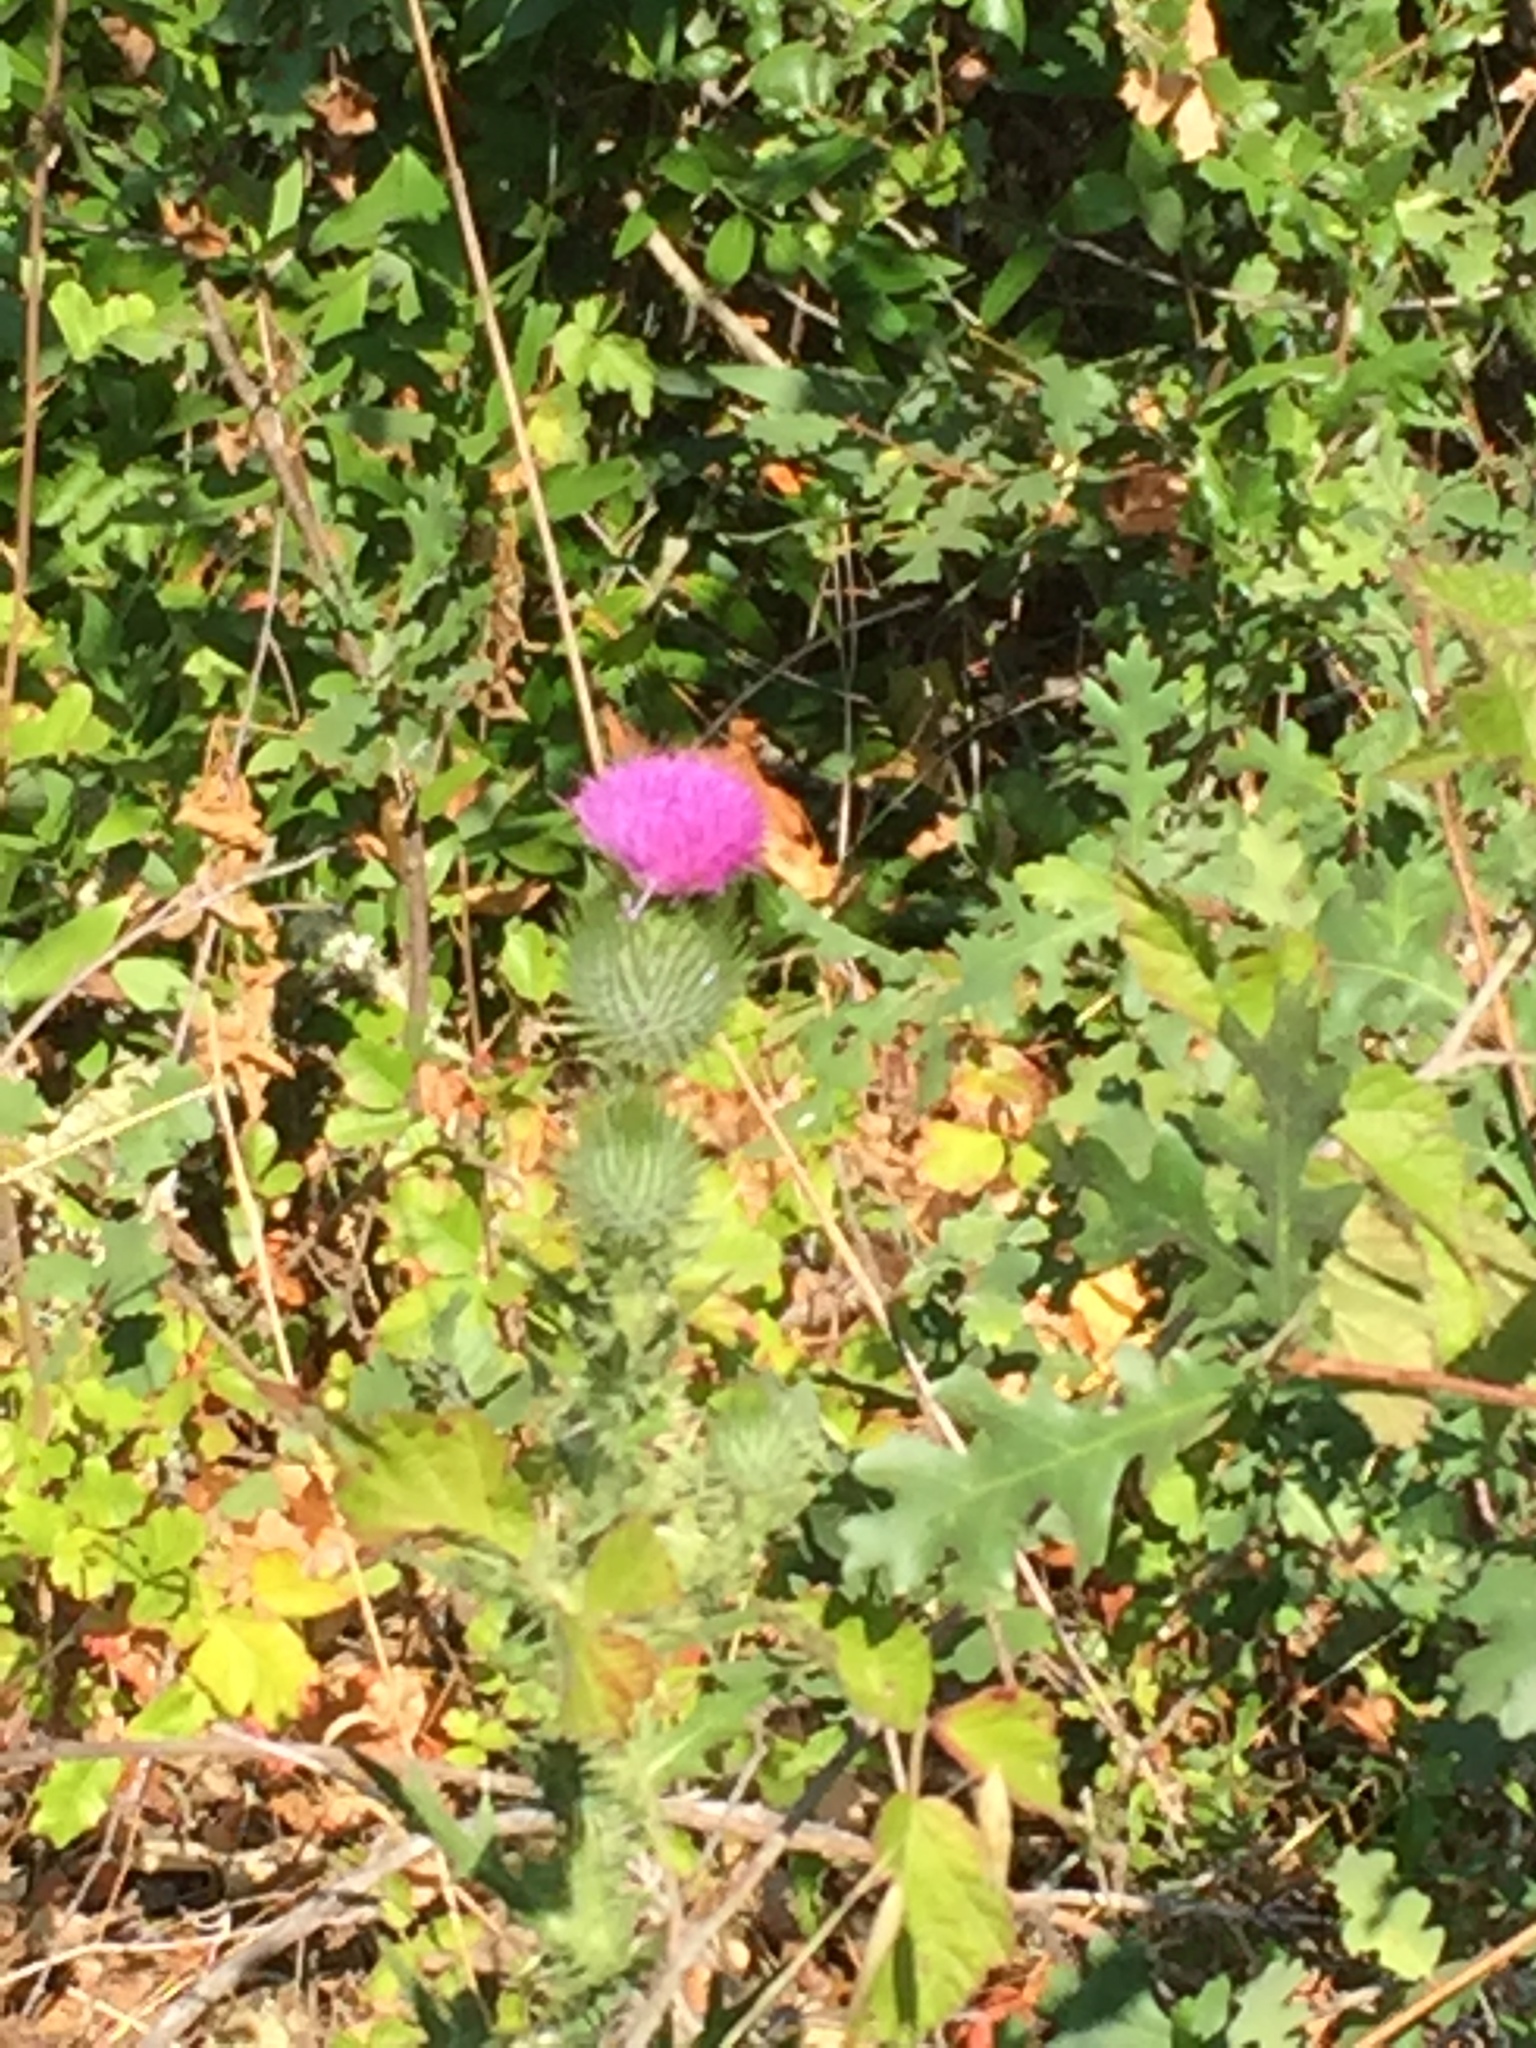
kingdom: Animalia
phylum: Arthropoda
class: Insecta
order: Lepidoptera
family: Papilionidae
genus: Battus
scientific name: Battus philenor
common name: Pipevine swallowtail
